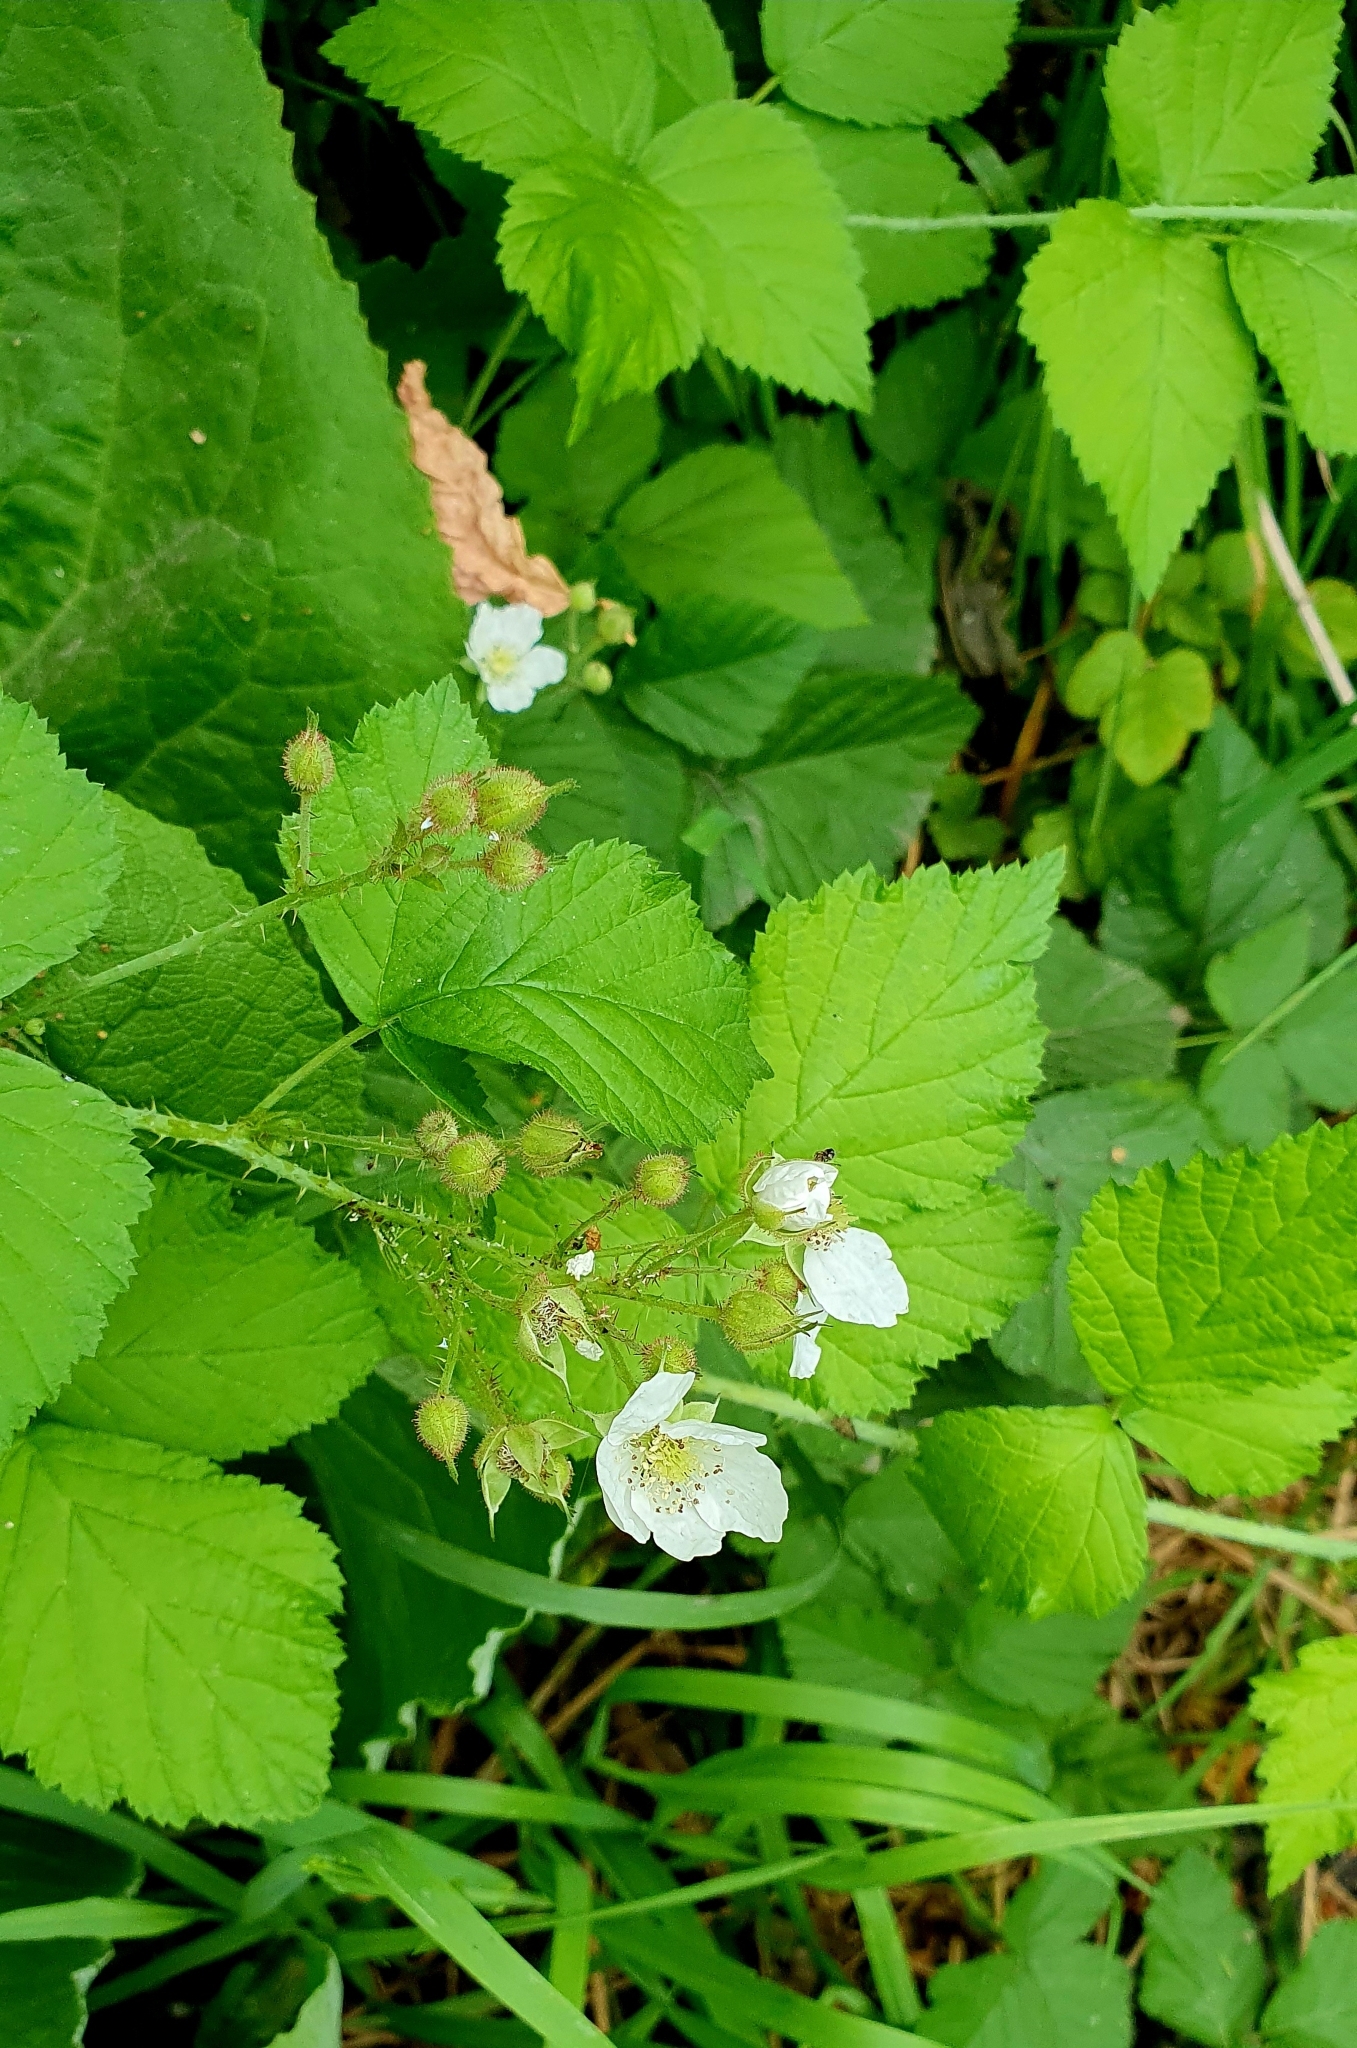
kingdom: Plantae
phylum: Tracheophyta
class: Magnoliopsida
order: Rosales
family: Rosaceae
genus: Rubus
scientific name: Rubus caesius
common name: Dewberry
